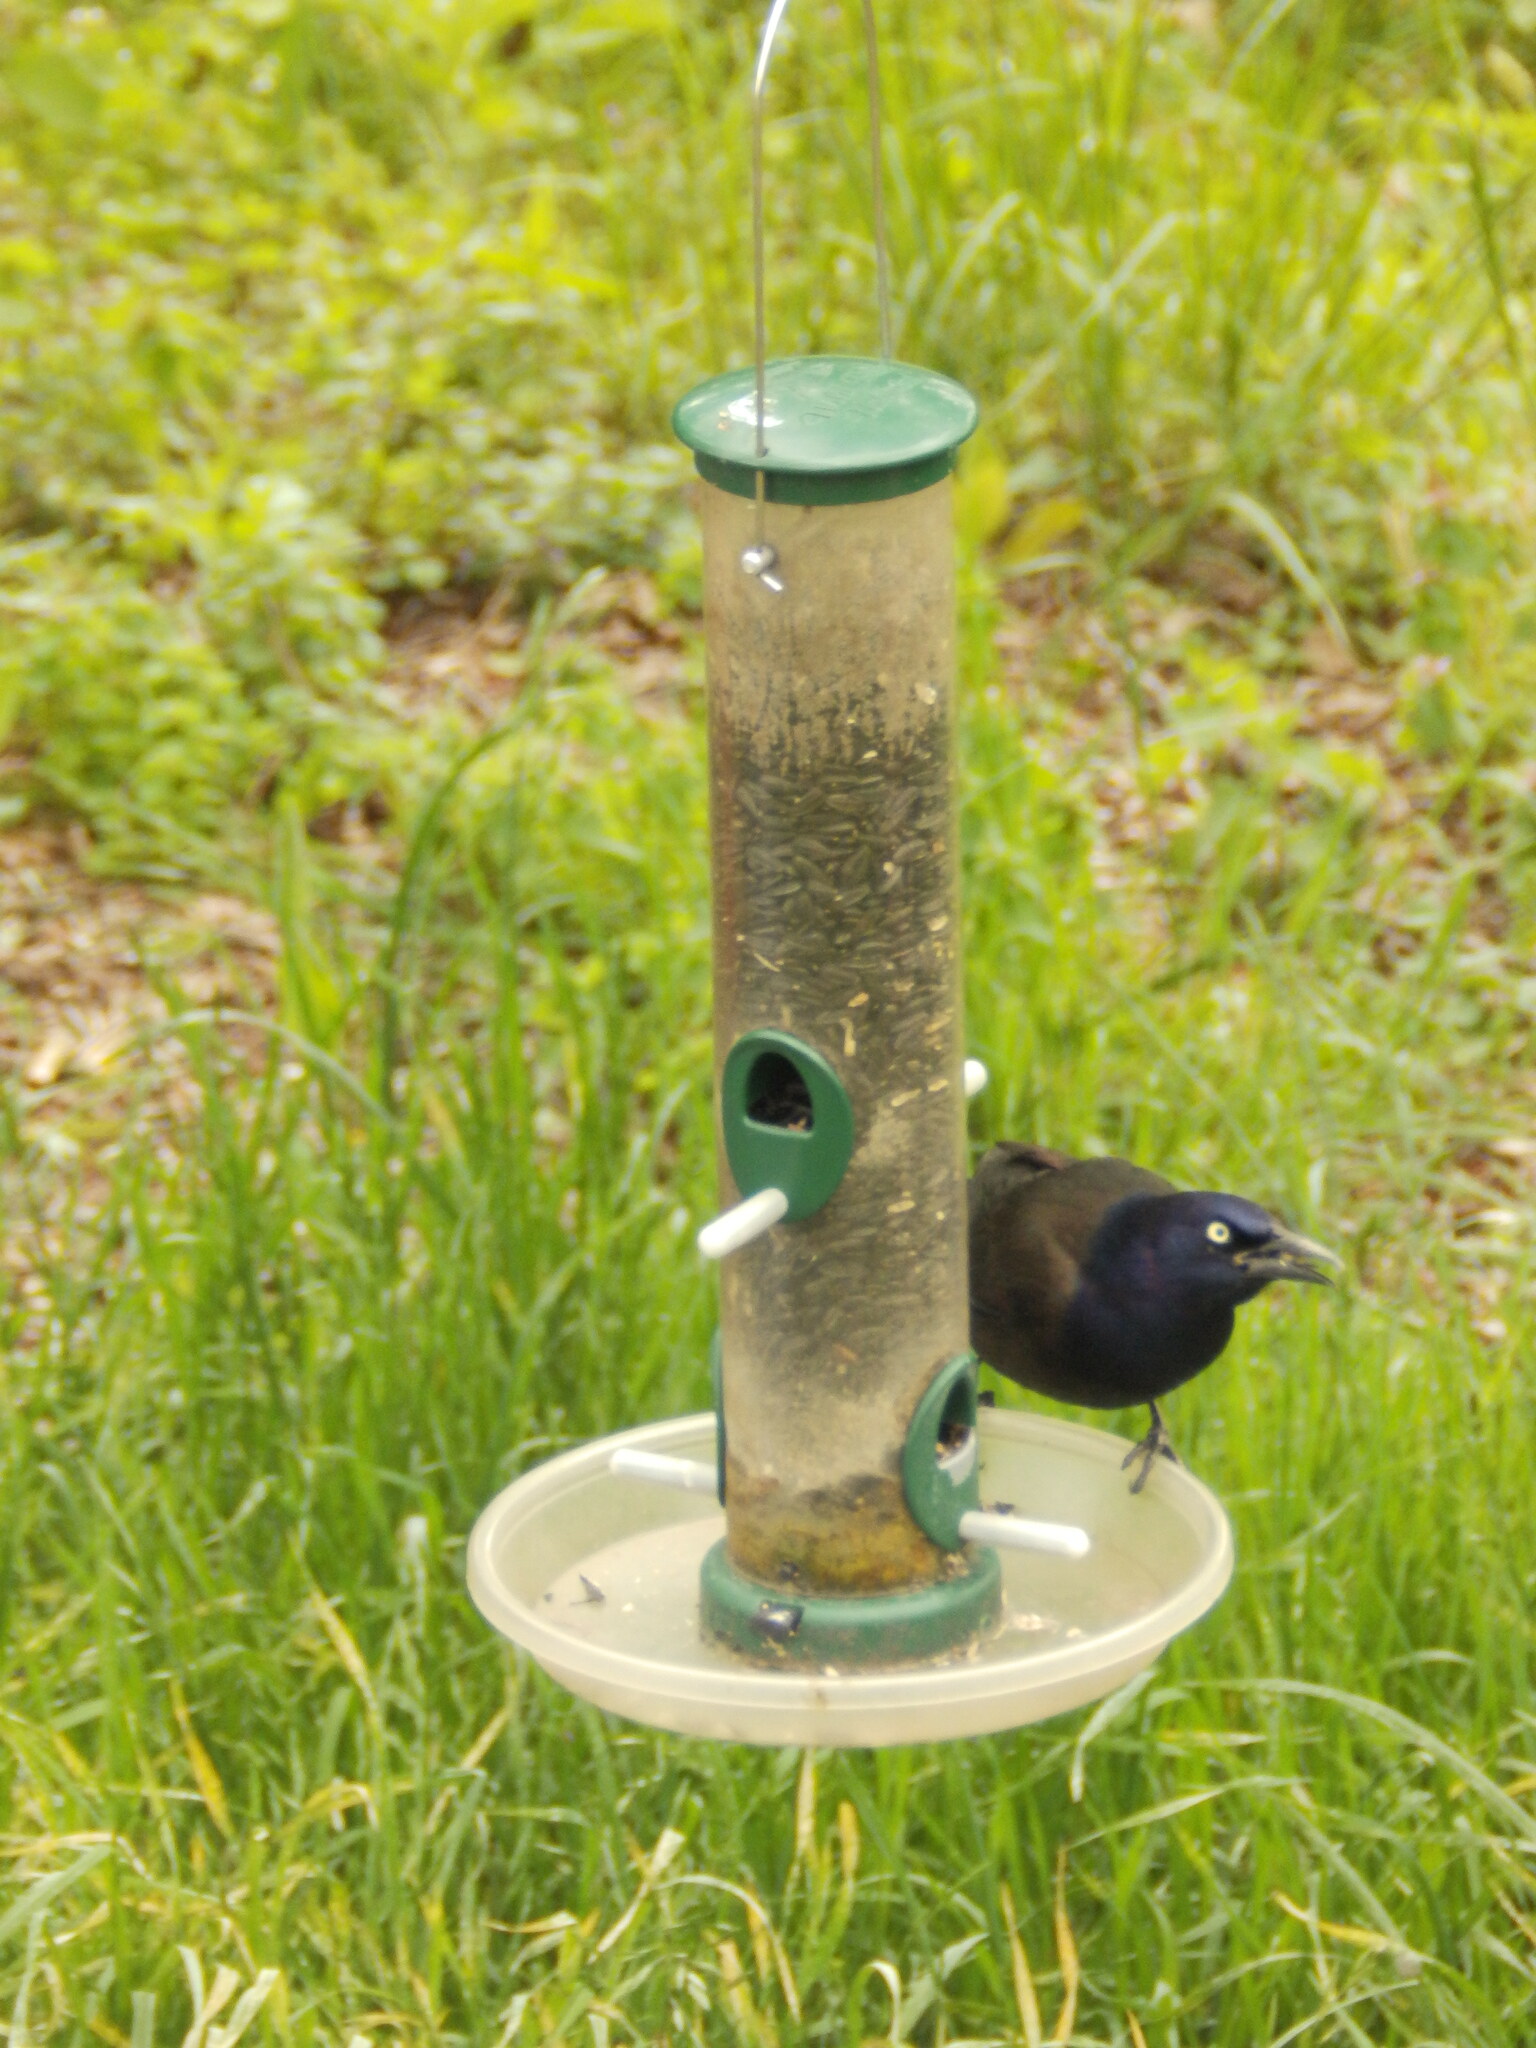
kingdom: Animalia
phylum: Chordata
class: Aves
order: Passeriformes
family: Icteridae
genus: Quiscalus
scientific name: Quiscalus quiscula
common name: Common grackle
